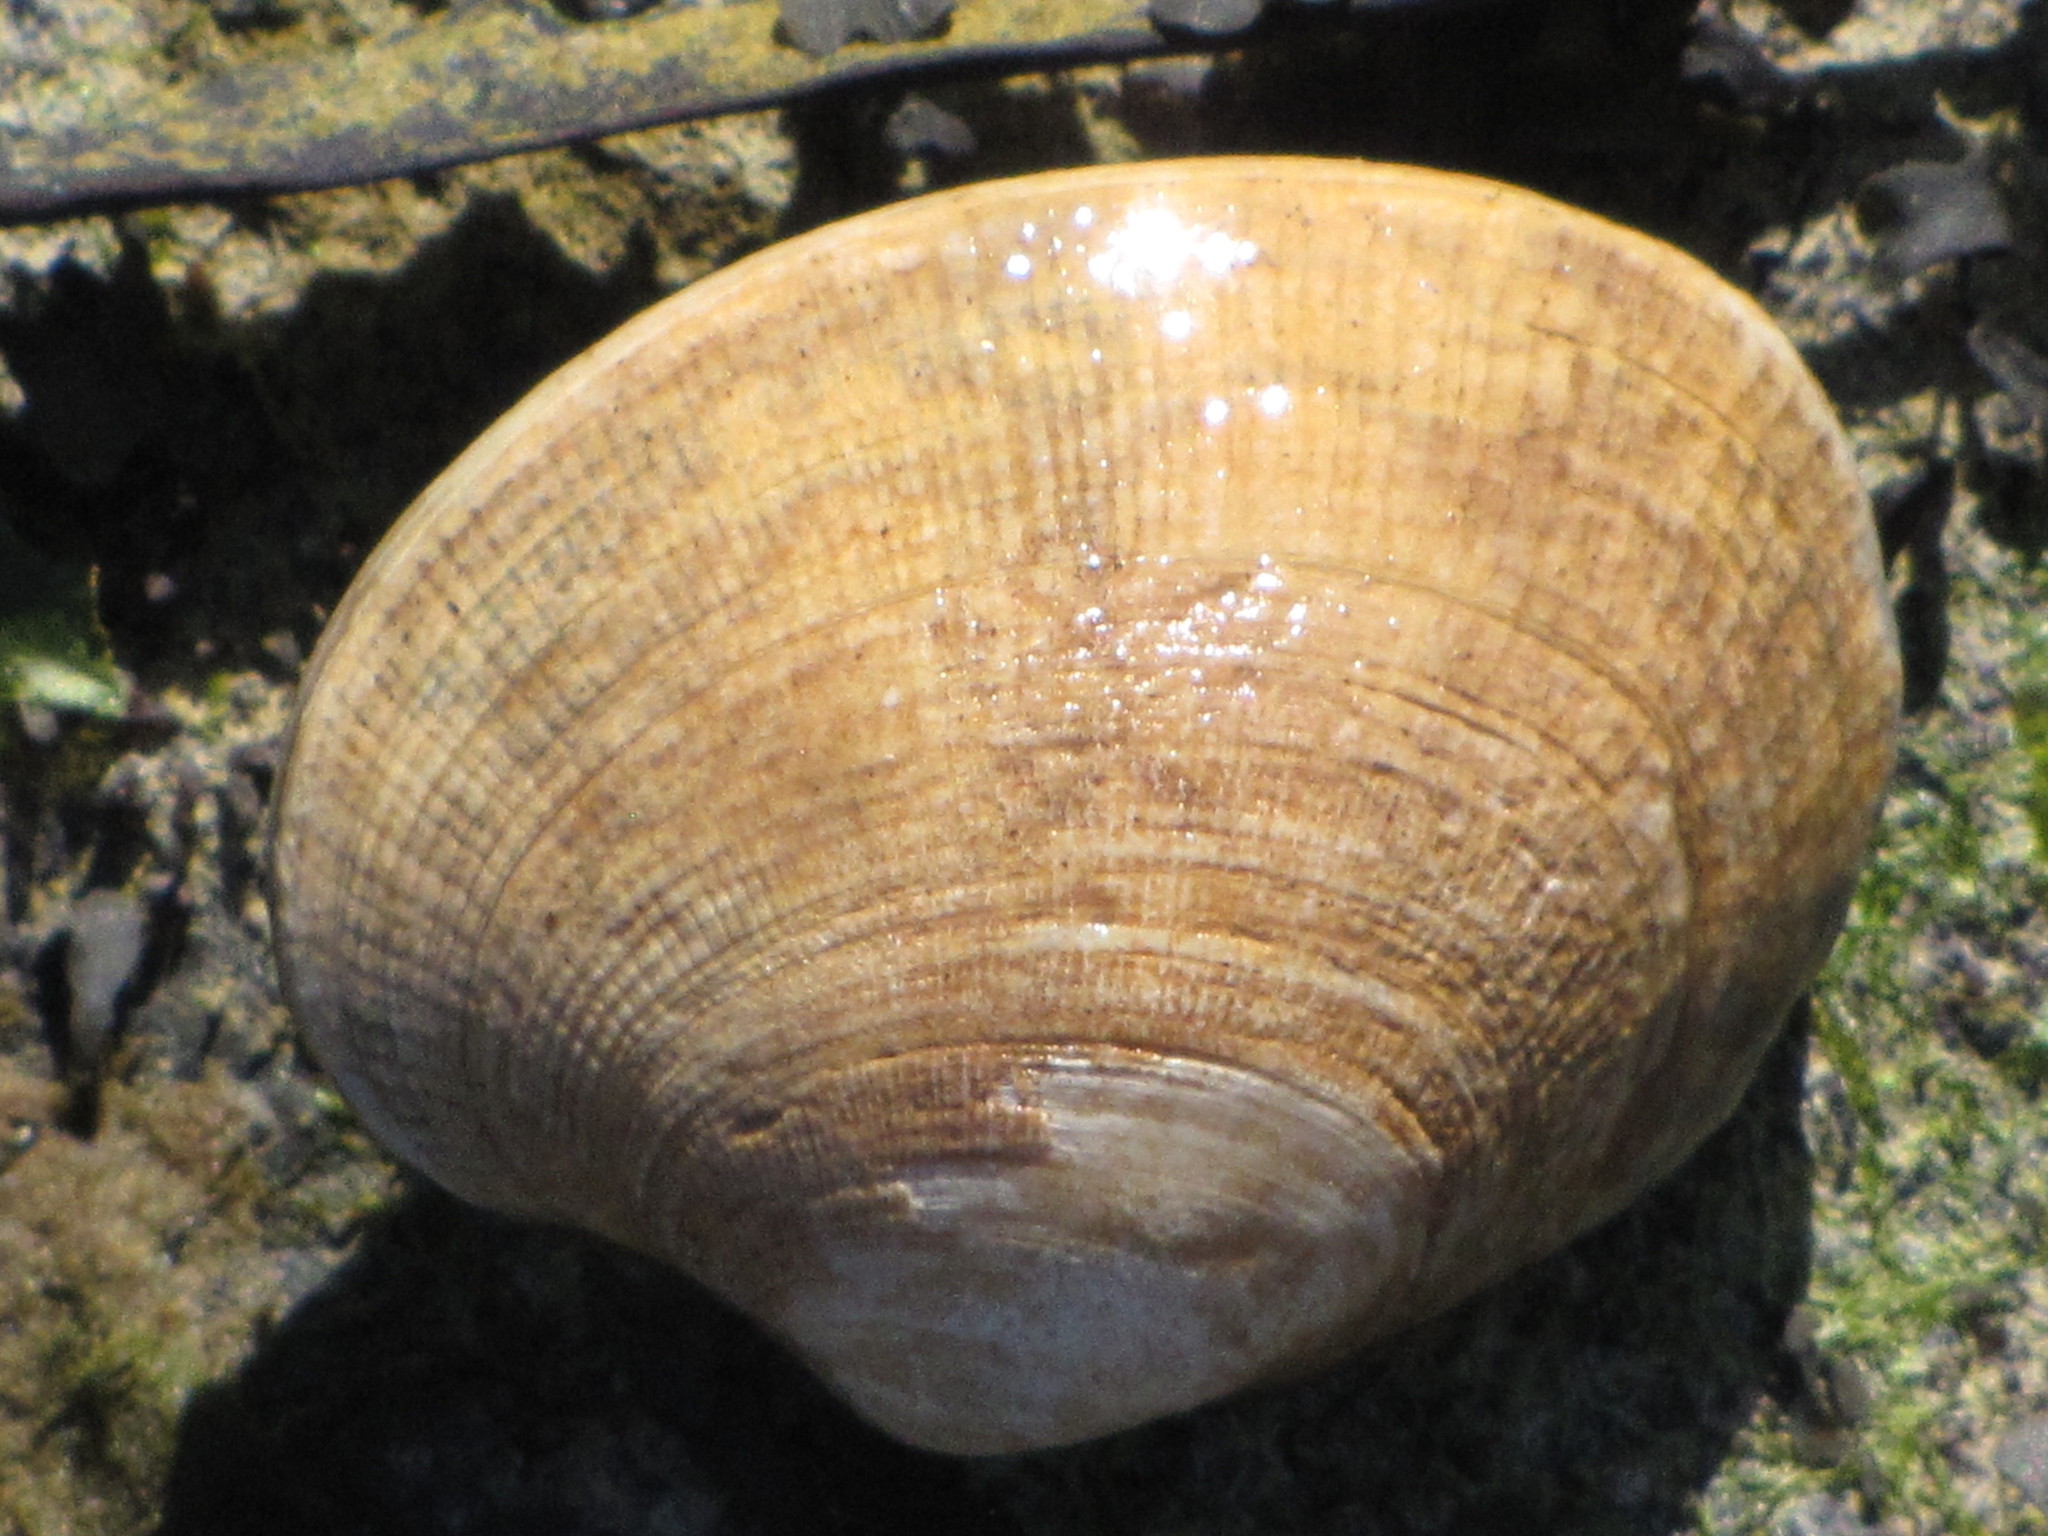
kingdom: Animalia
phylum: Mollusca
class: Bivalvia
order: Venerida
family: Veneridae
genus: Ruditapes
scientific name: Ruditapes philippinarum
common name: Manila clam
